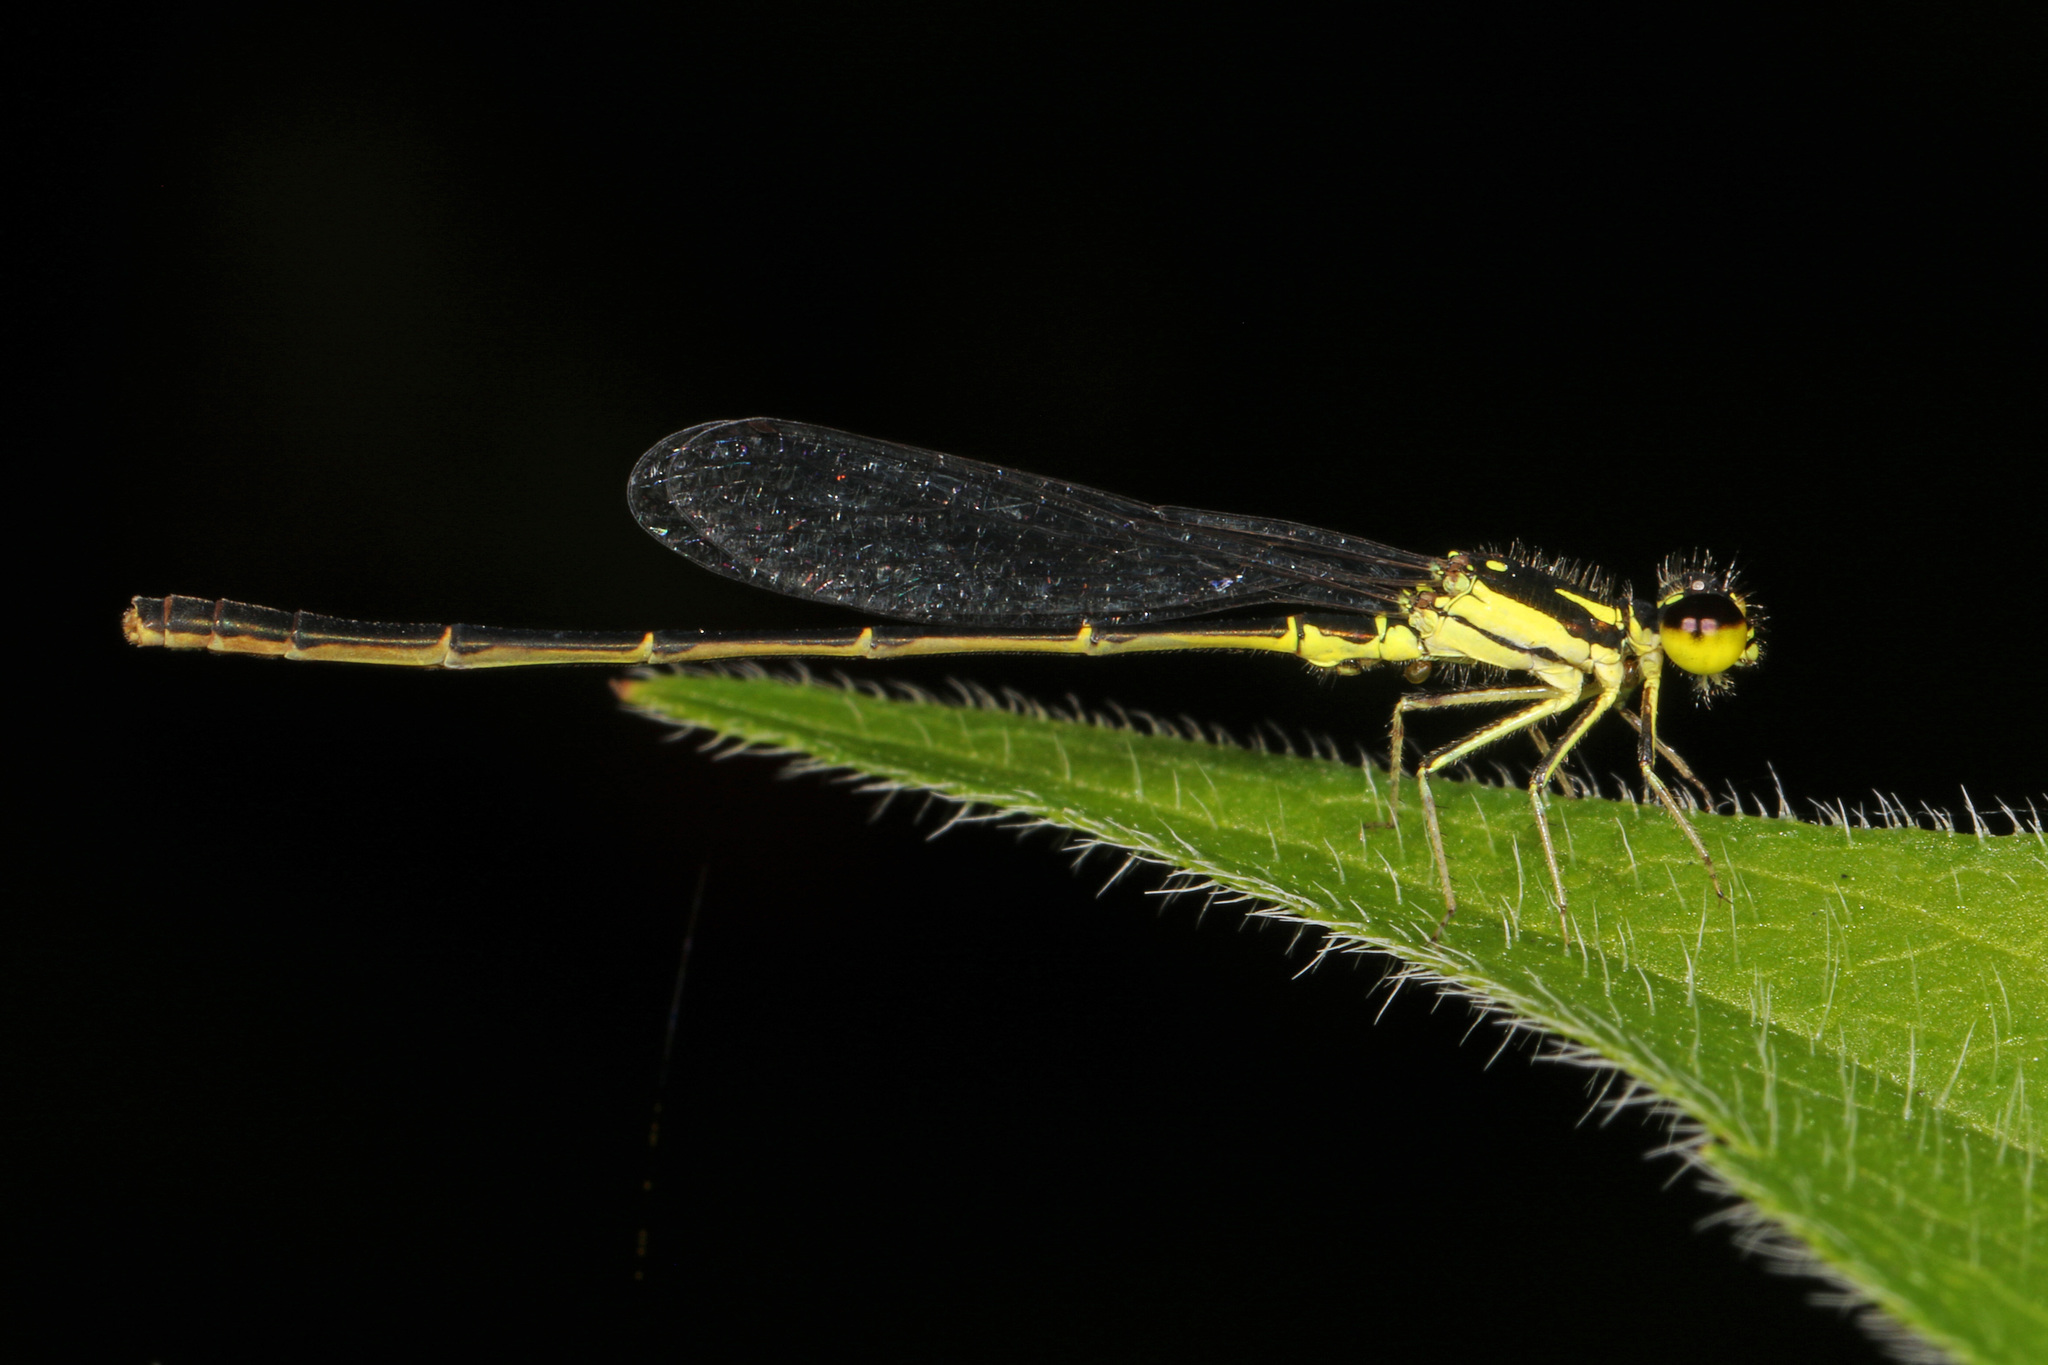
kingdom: Animalia
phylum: Arthropoda
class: Insecta
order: Odonata
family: Coenagrionidae
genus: Ischnura
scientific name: Ischnura posita
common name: Fragile forktail
